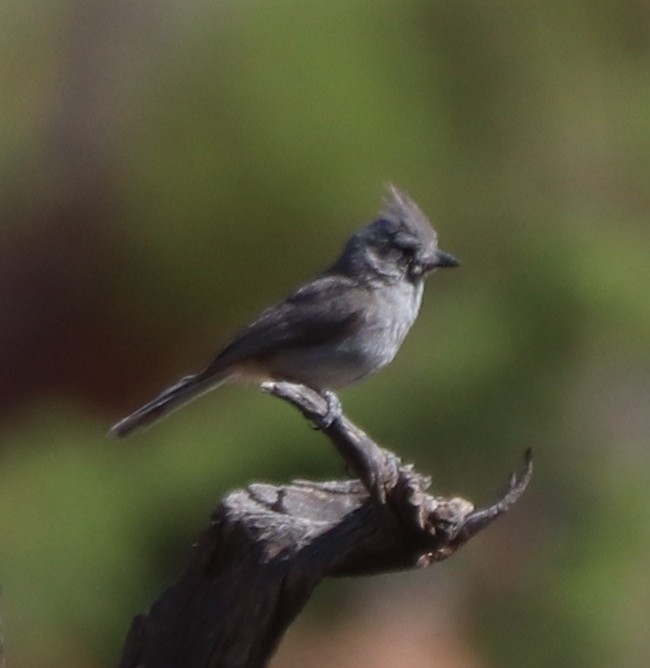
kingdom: Animalia
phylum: Chordata
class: Aves
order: Passeriformes
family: Paridae
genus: Baeolophus
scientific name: Baeolophus ridgwayi
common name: Juniper titmouse
